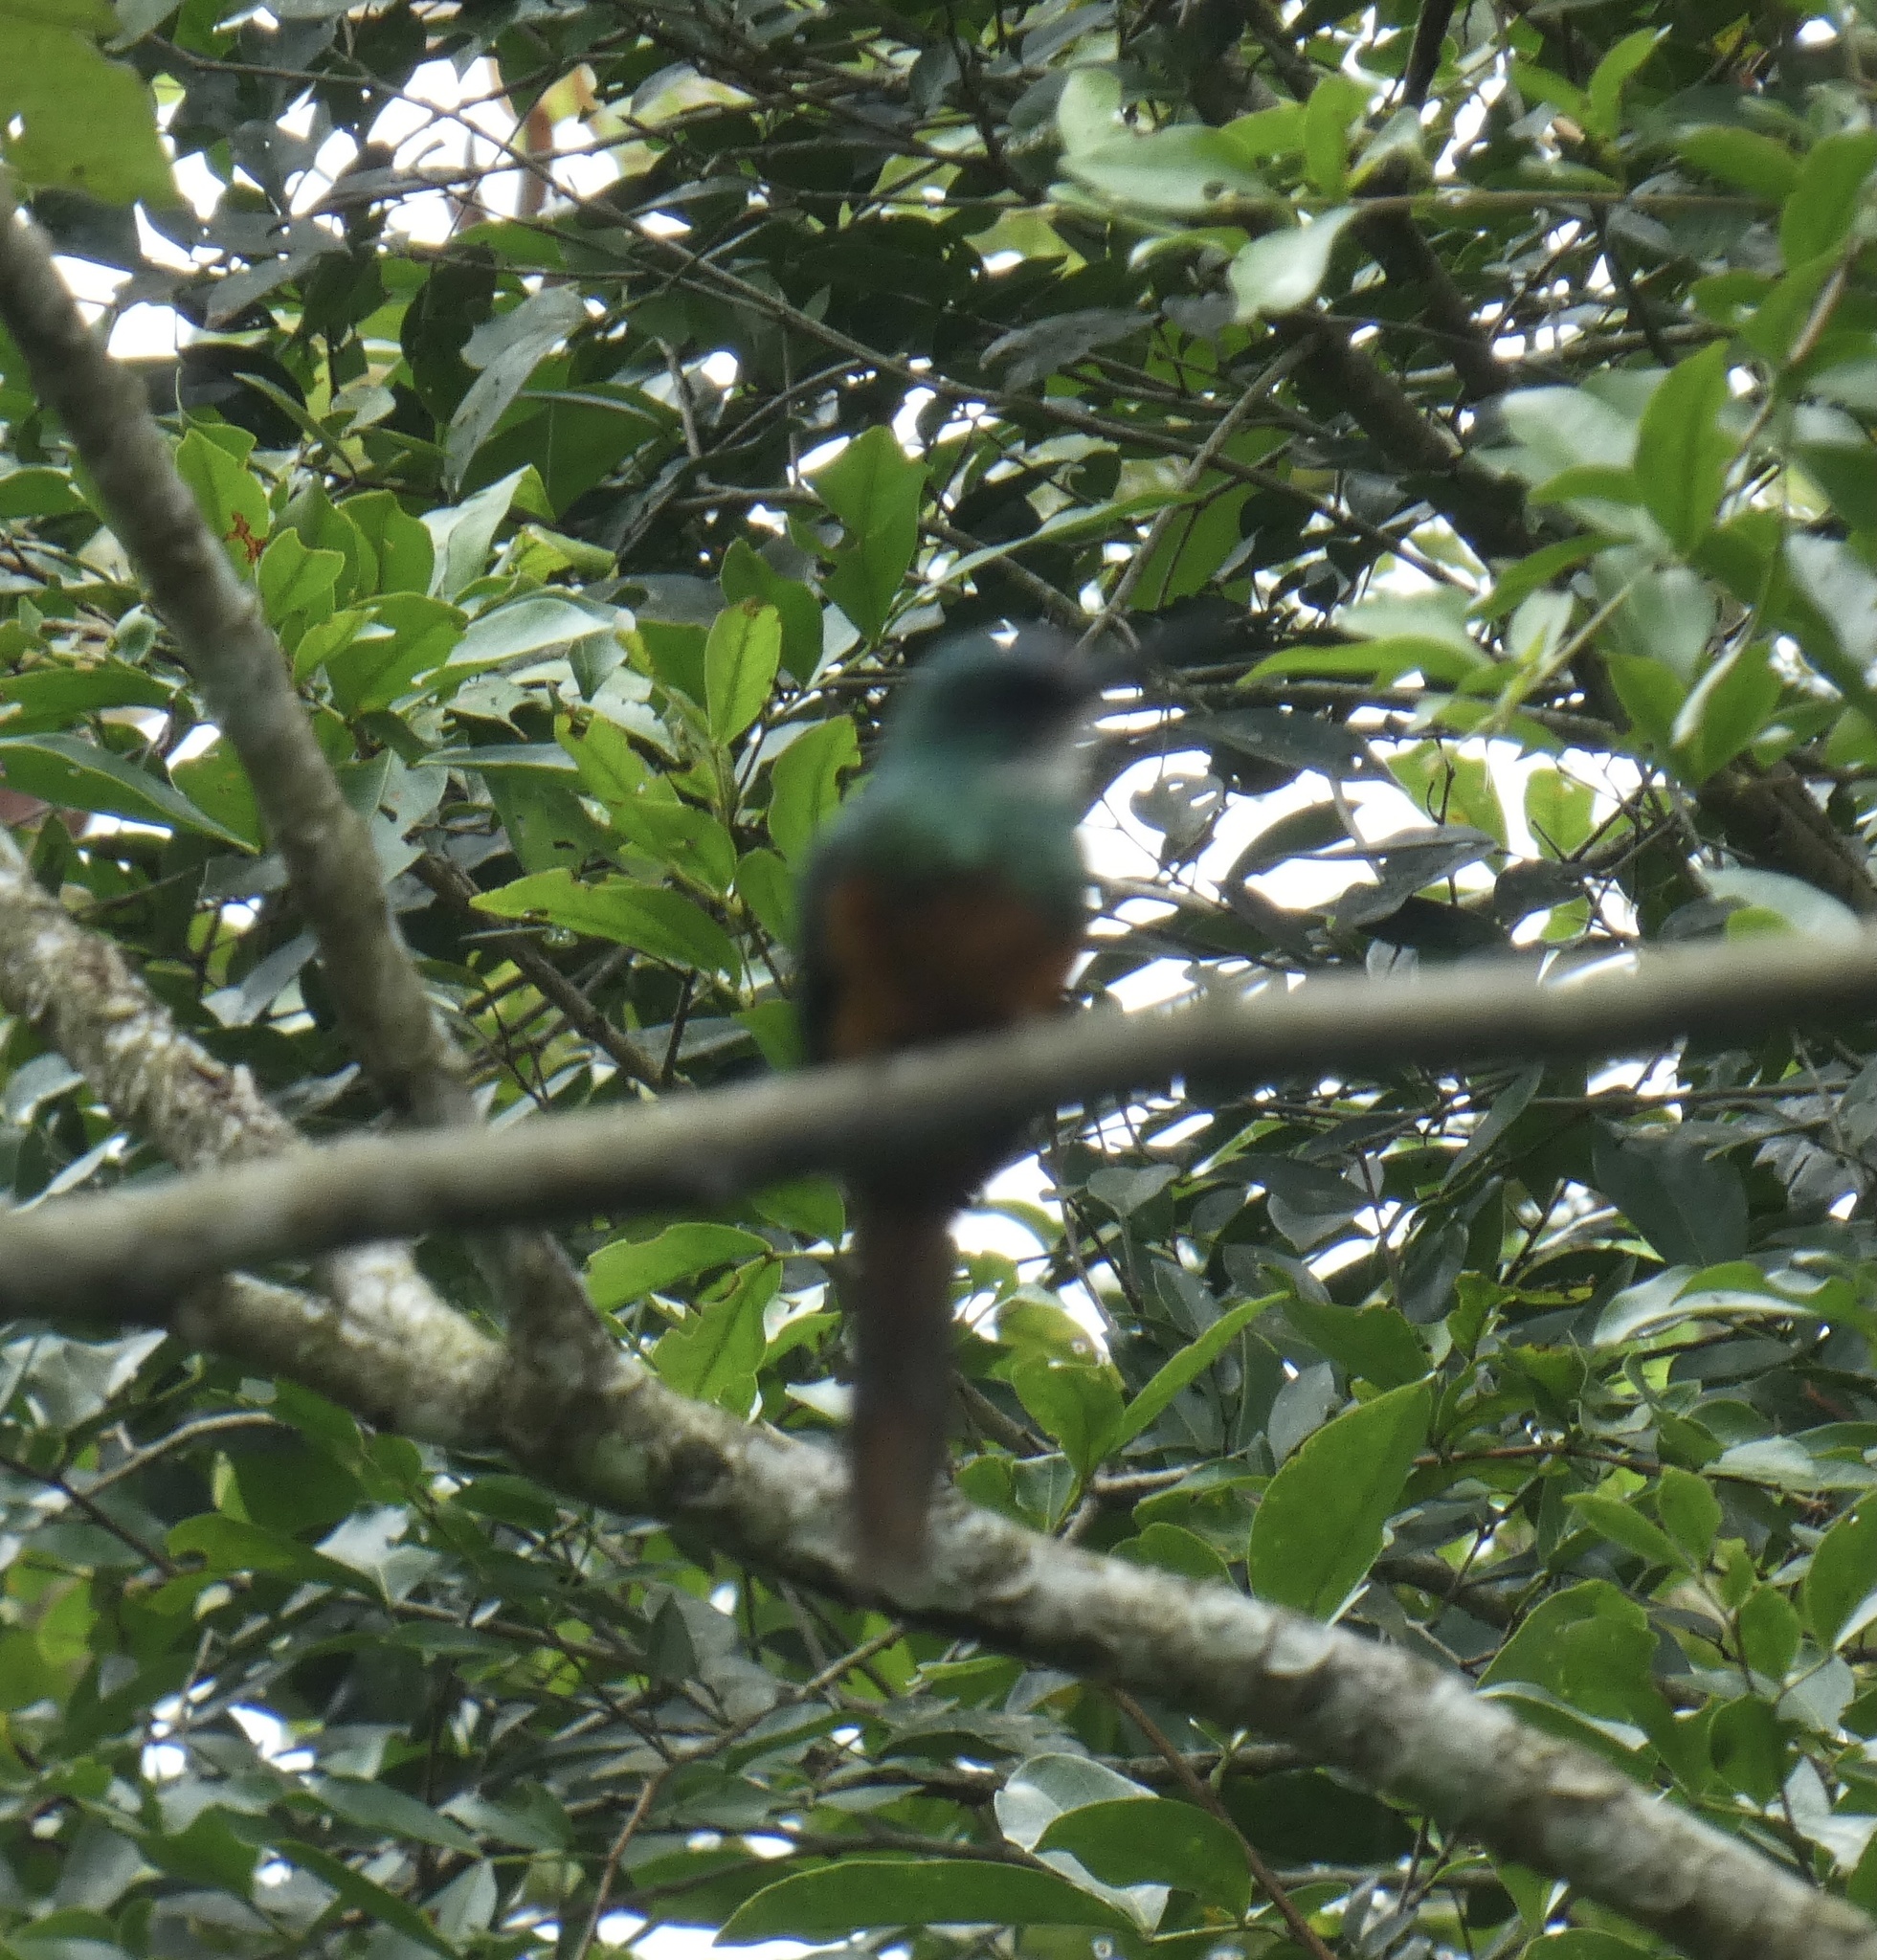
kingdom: Animalia
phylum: Chordata
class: Aves
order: Piciformes
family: Galbulidae
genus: Galbula
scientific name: Galbula ruficauda
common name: Rufous-tailed jacamar
